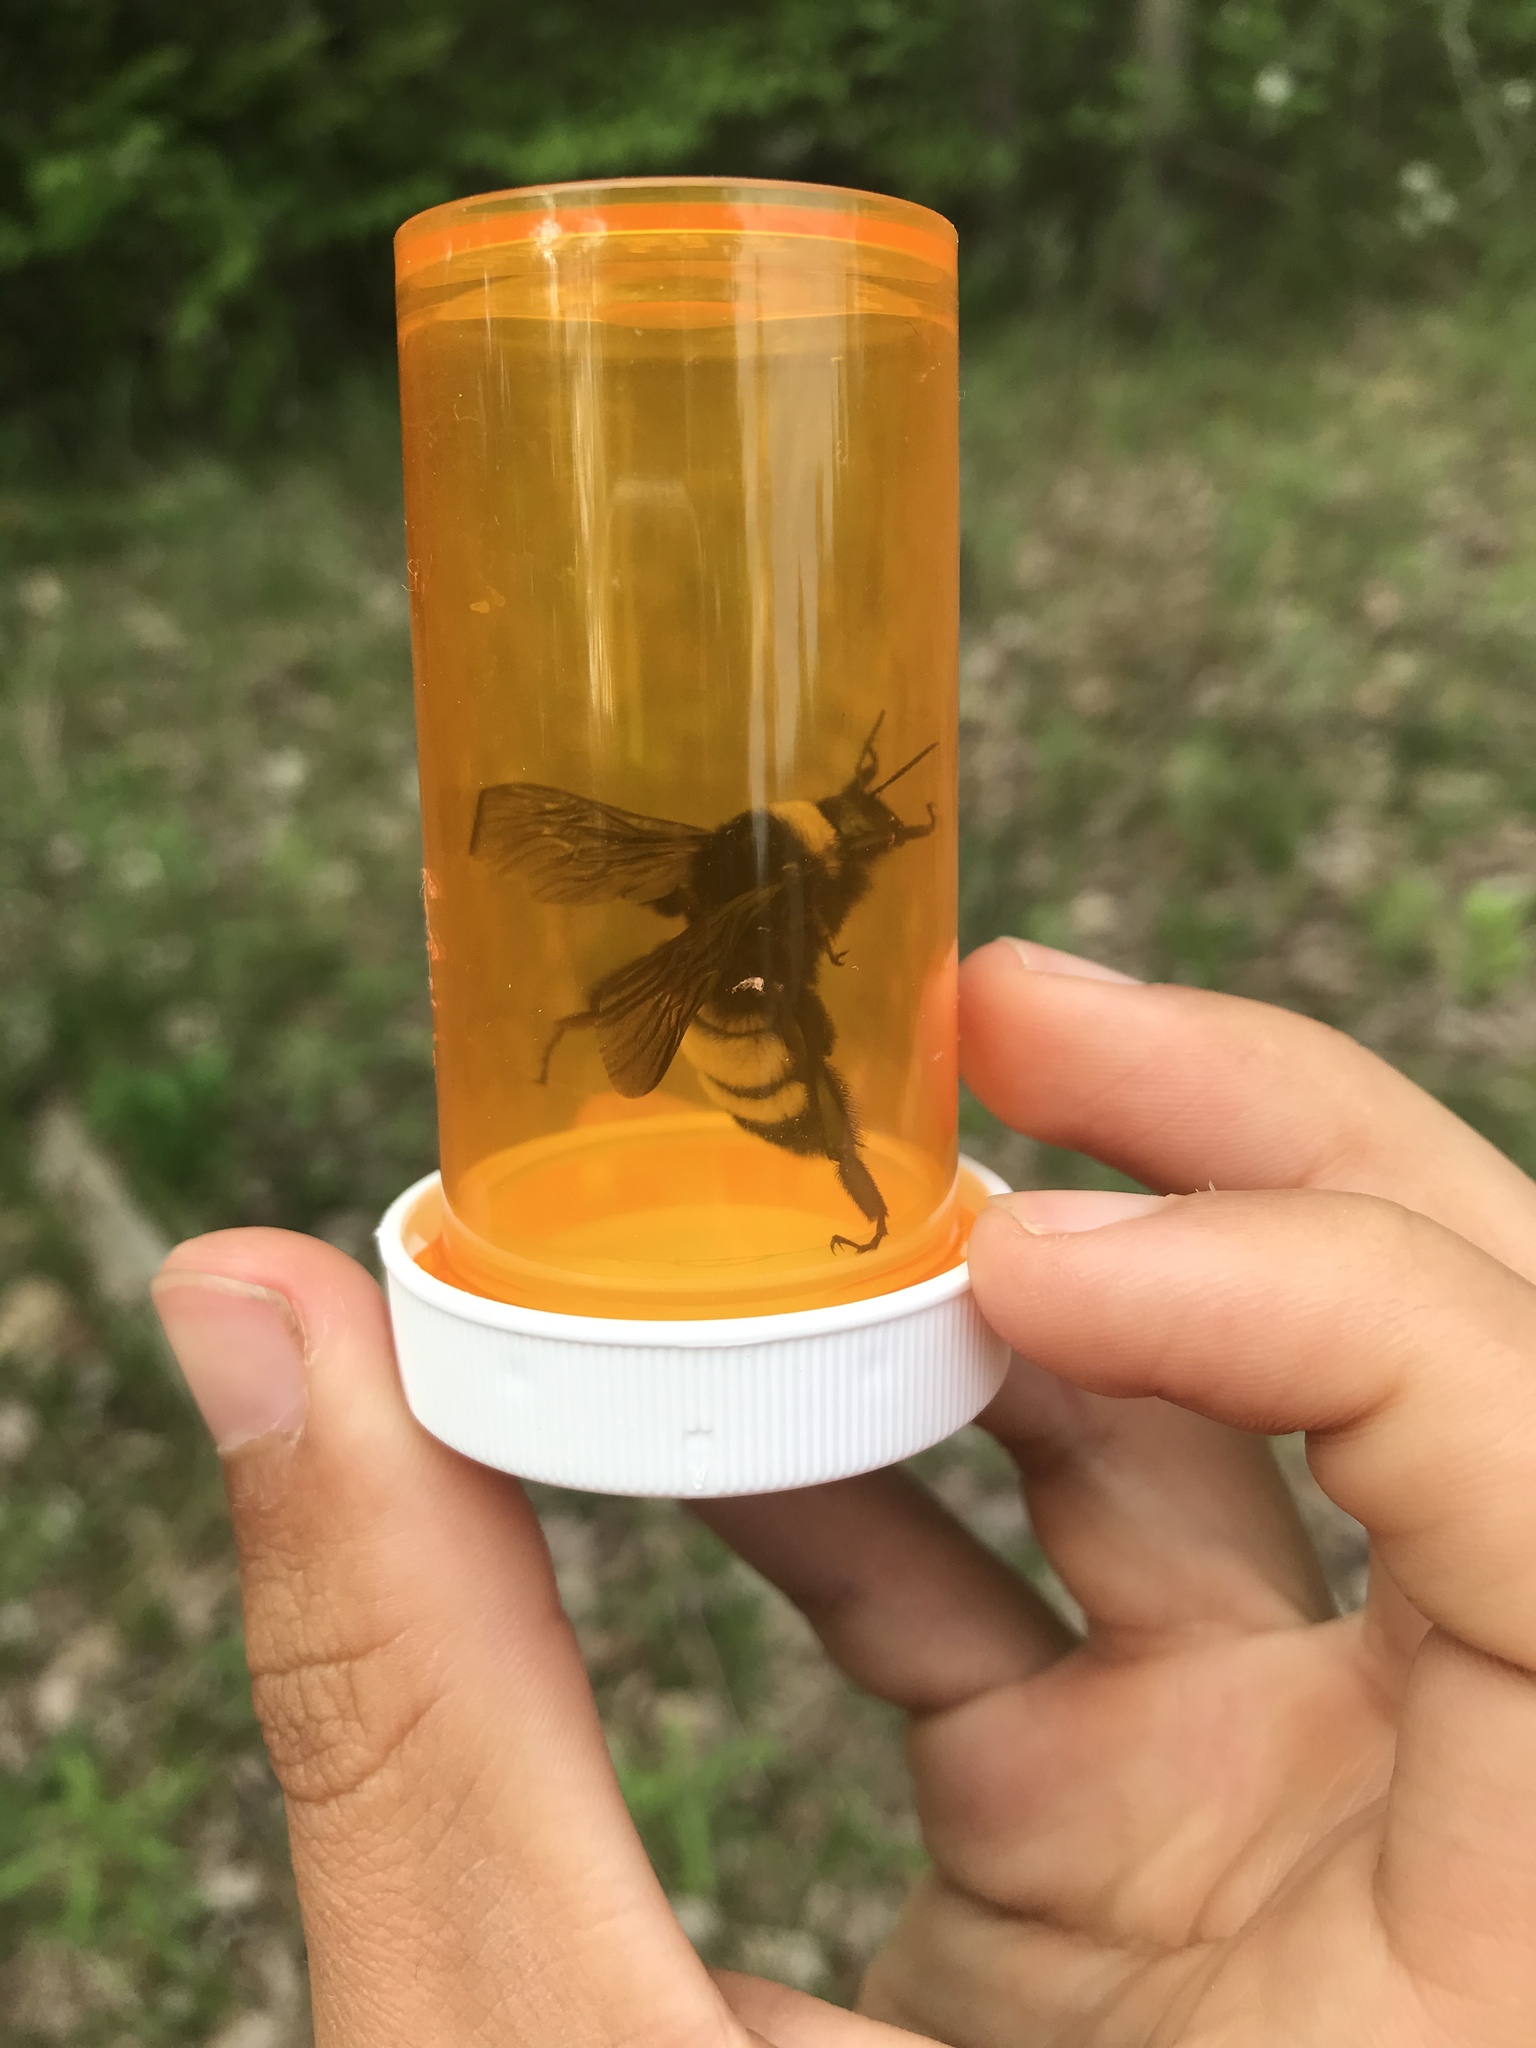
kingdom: Animalia
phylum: Arthropoda
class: Insecta
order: Hymenoptera
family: Apidae
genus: Bombus
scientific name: Bombus pensylvanicus
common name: Bumble bee
